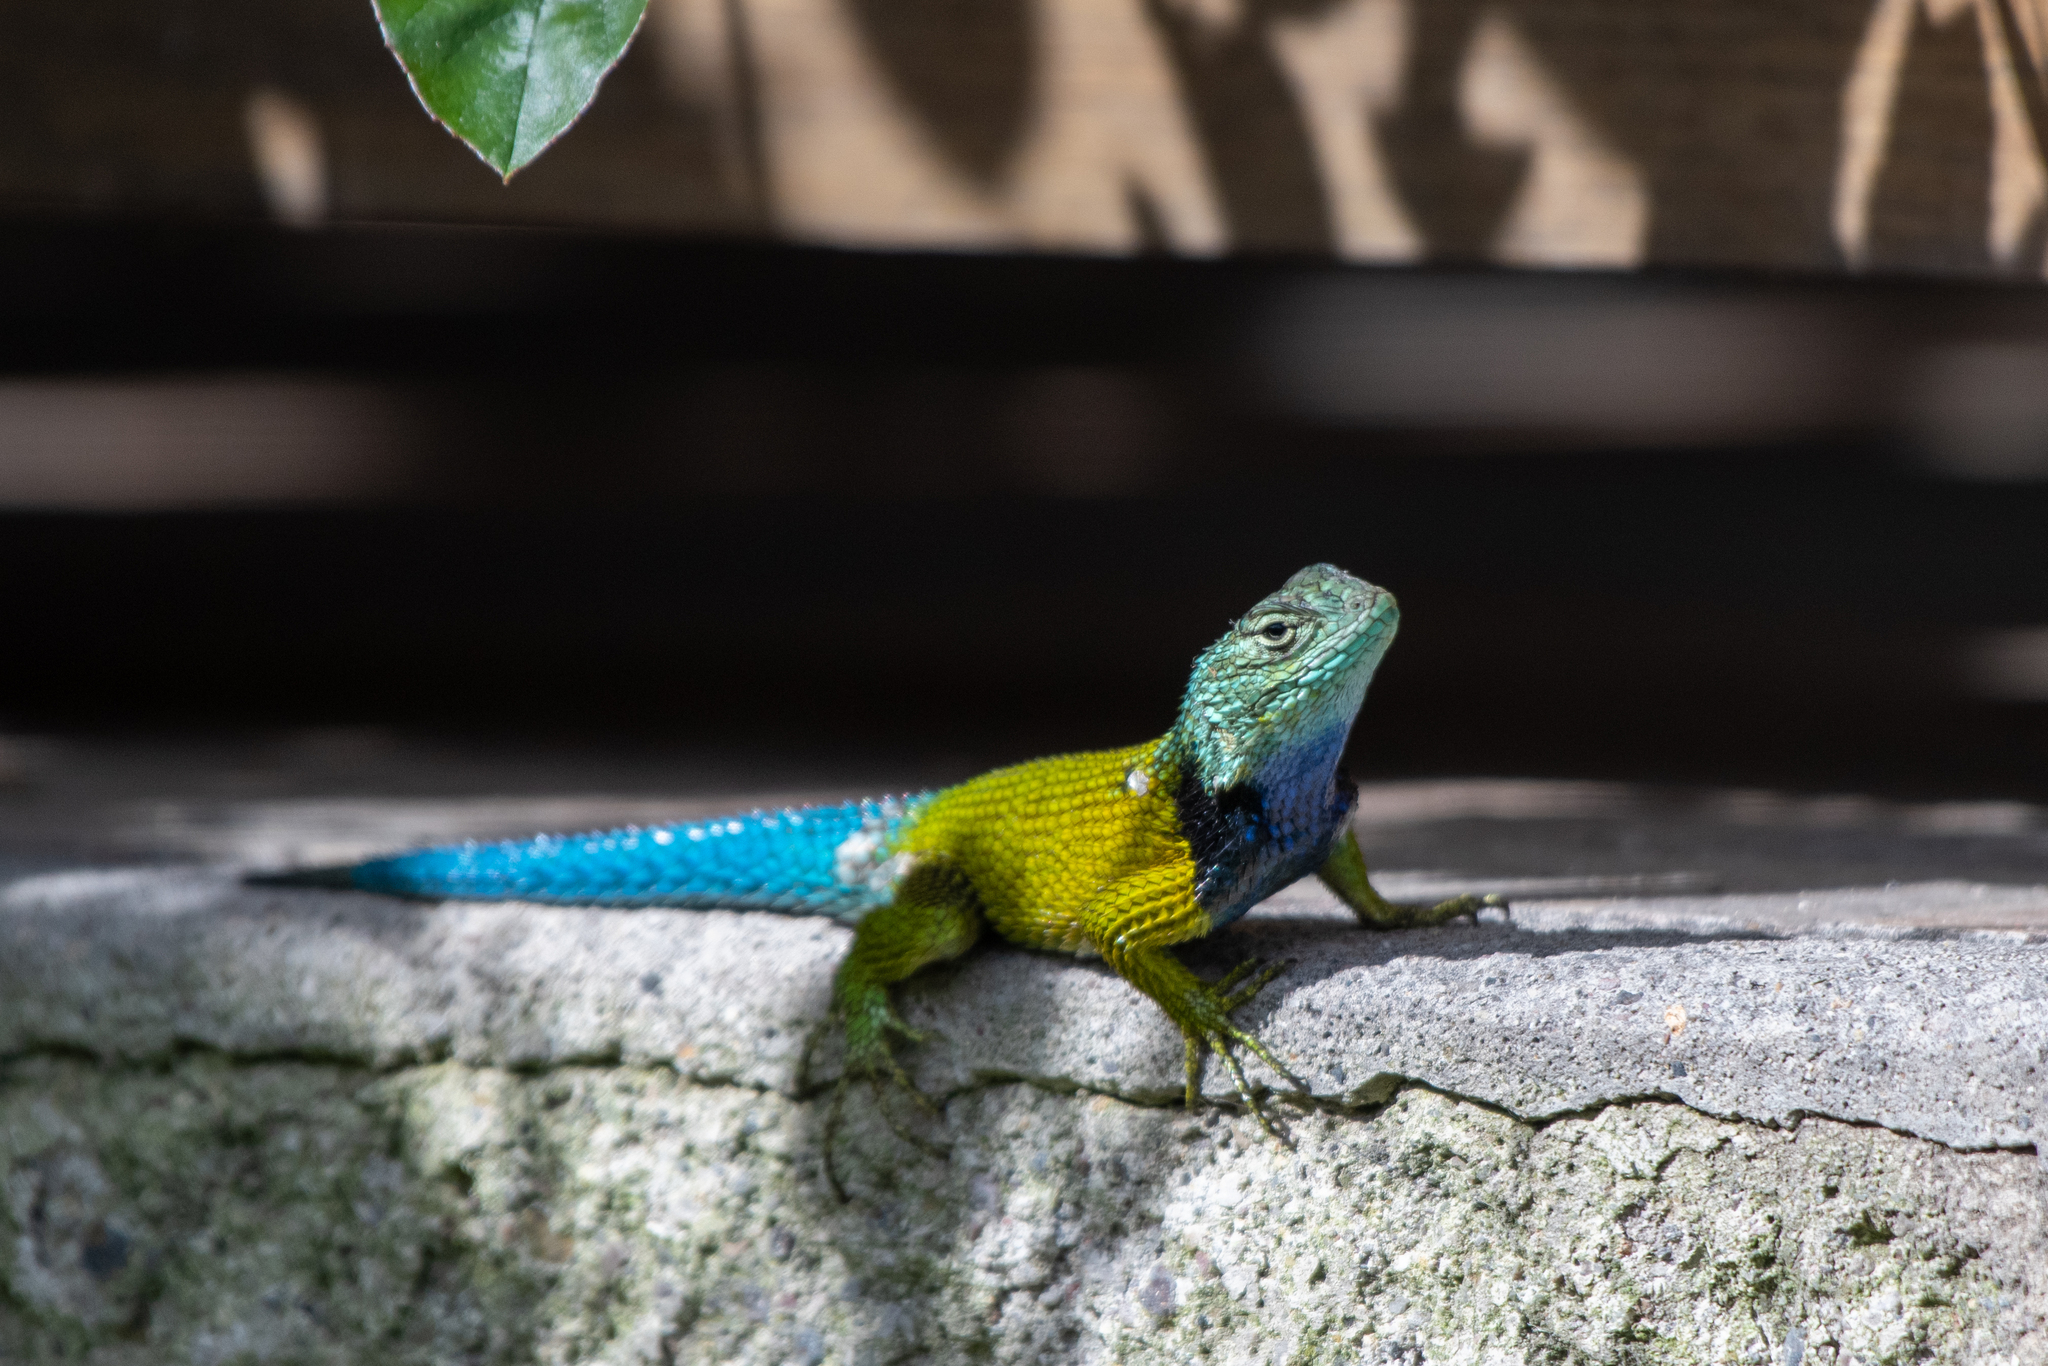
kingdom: Animalia
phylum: Chordata
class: Squamata
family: Phrynosomatidae
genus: Sceloporus
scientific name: Sceloporus esperanzae
